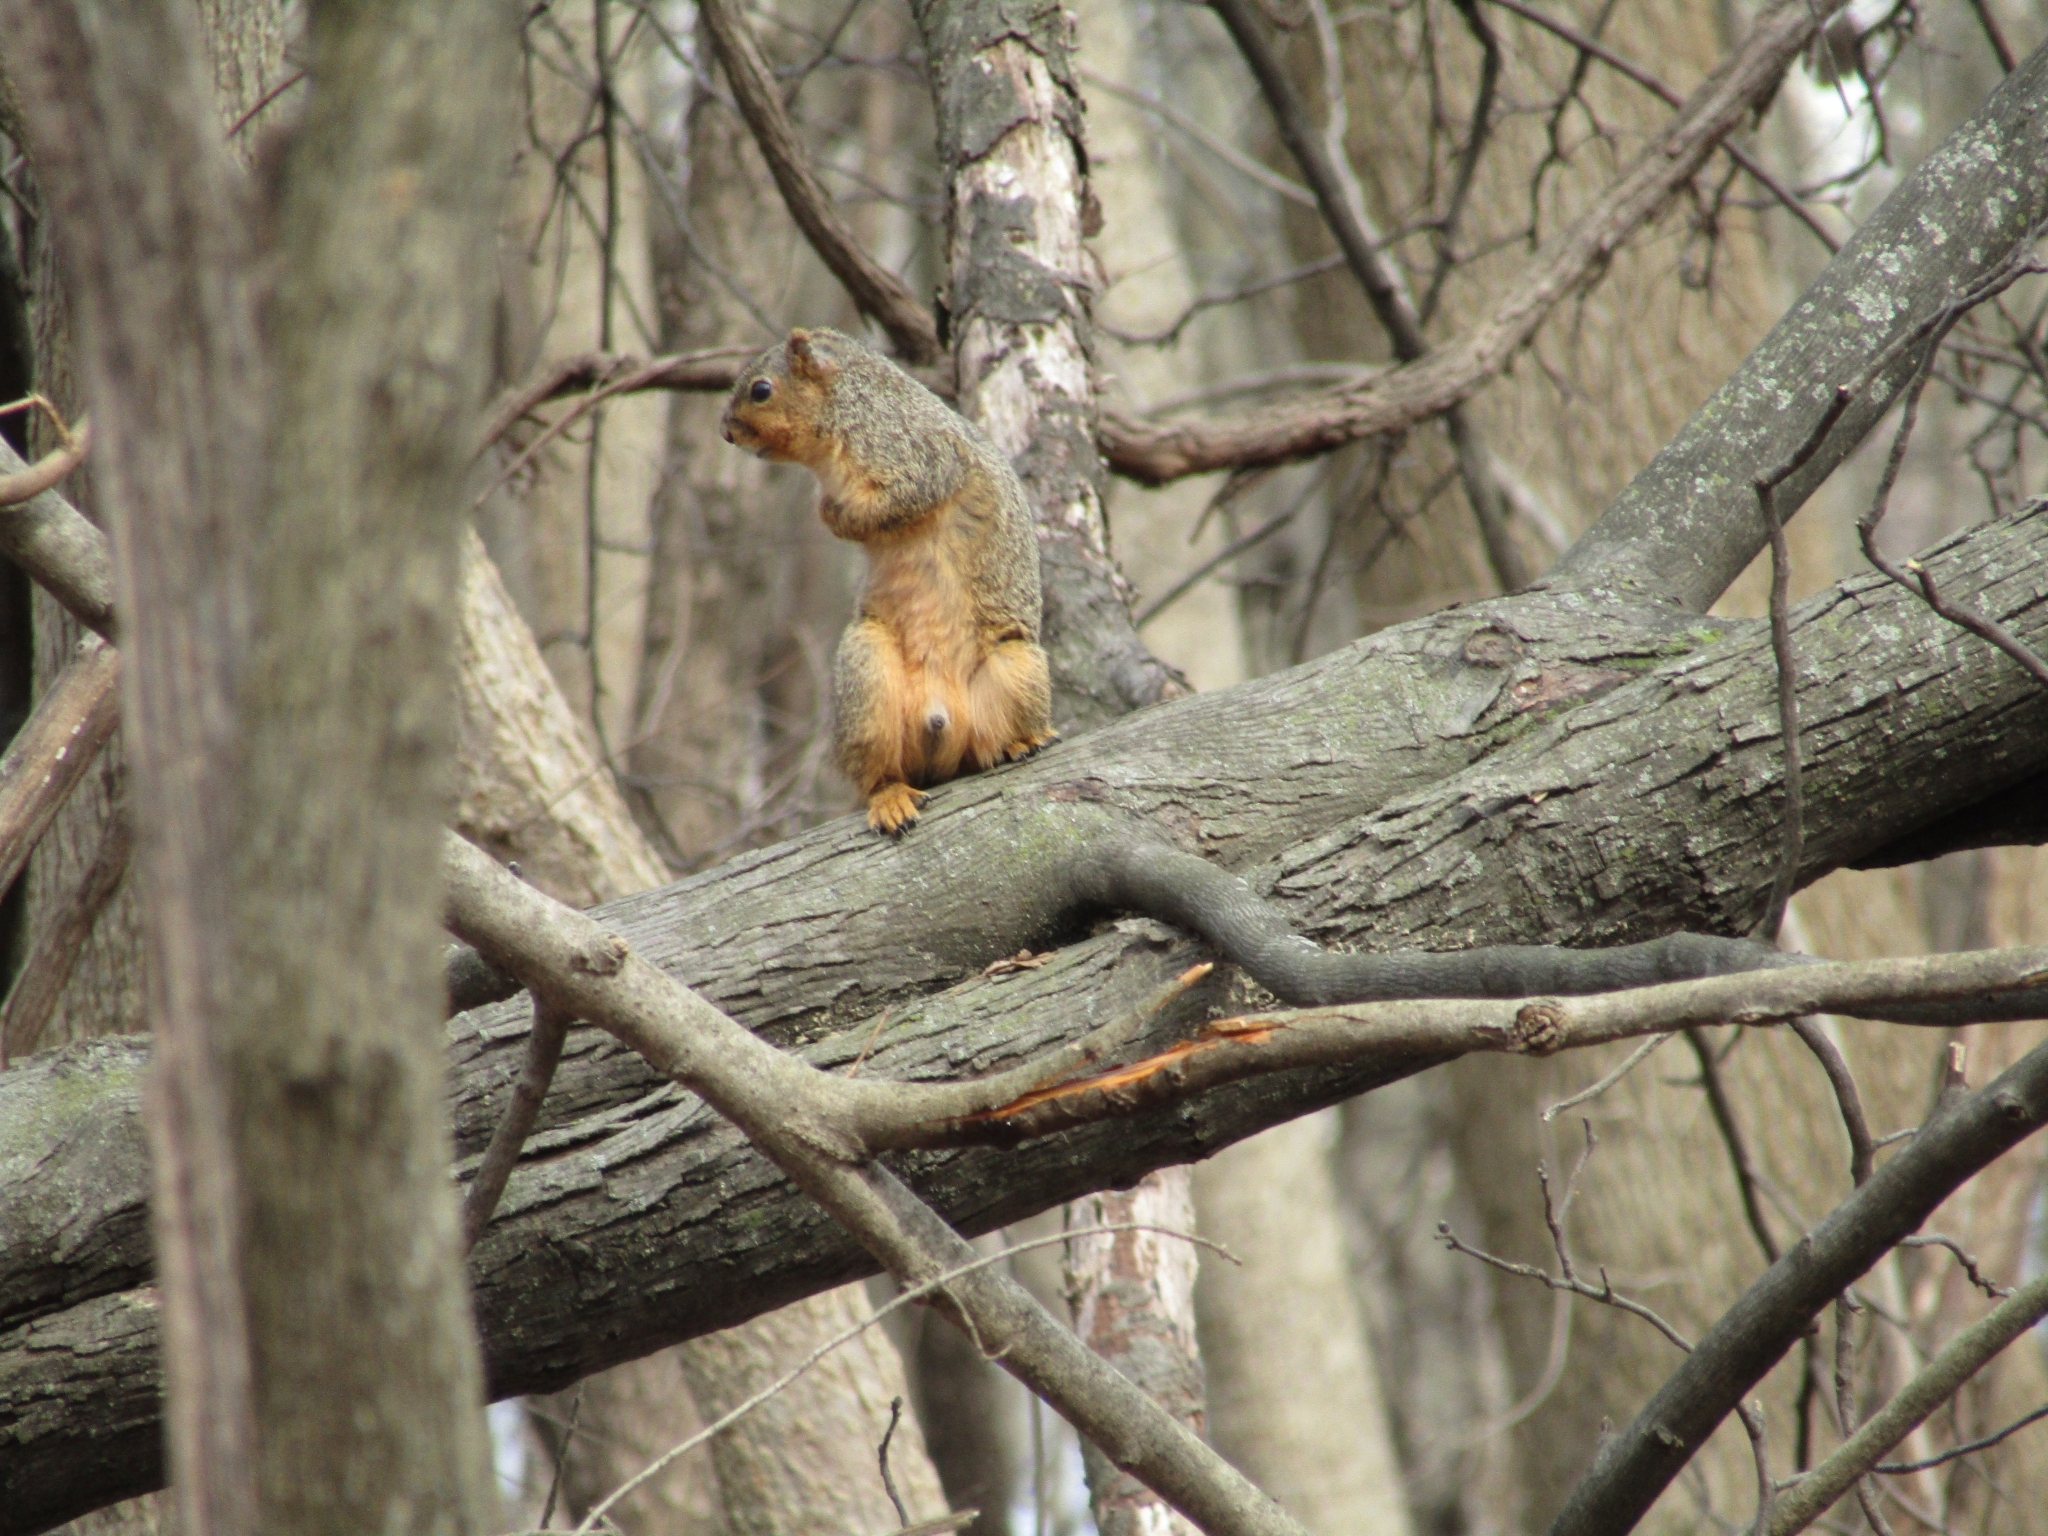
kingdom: Animalia
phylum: Chordata
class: Mammalia
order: Rodentia
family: Sciuridae
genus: Sciurus
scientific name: Sciurus niger
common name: Fox squirrel
